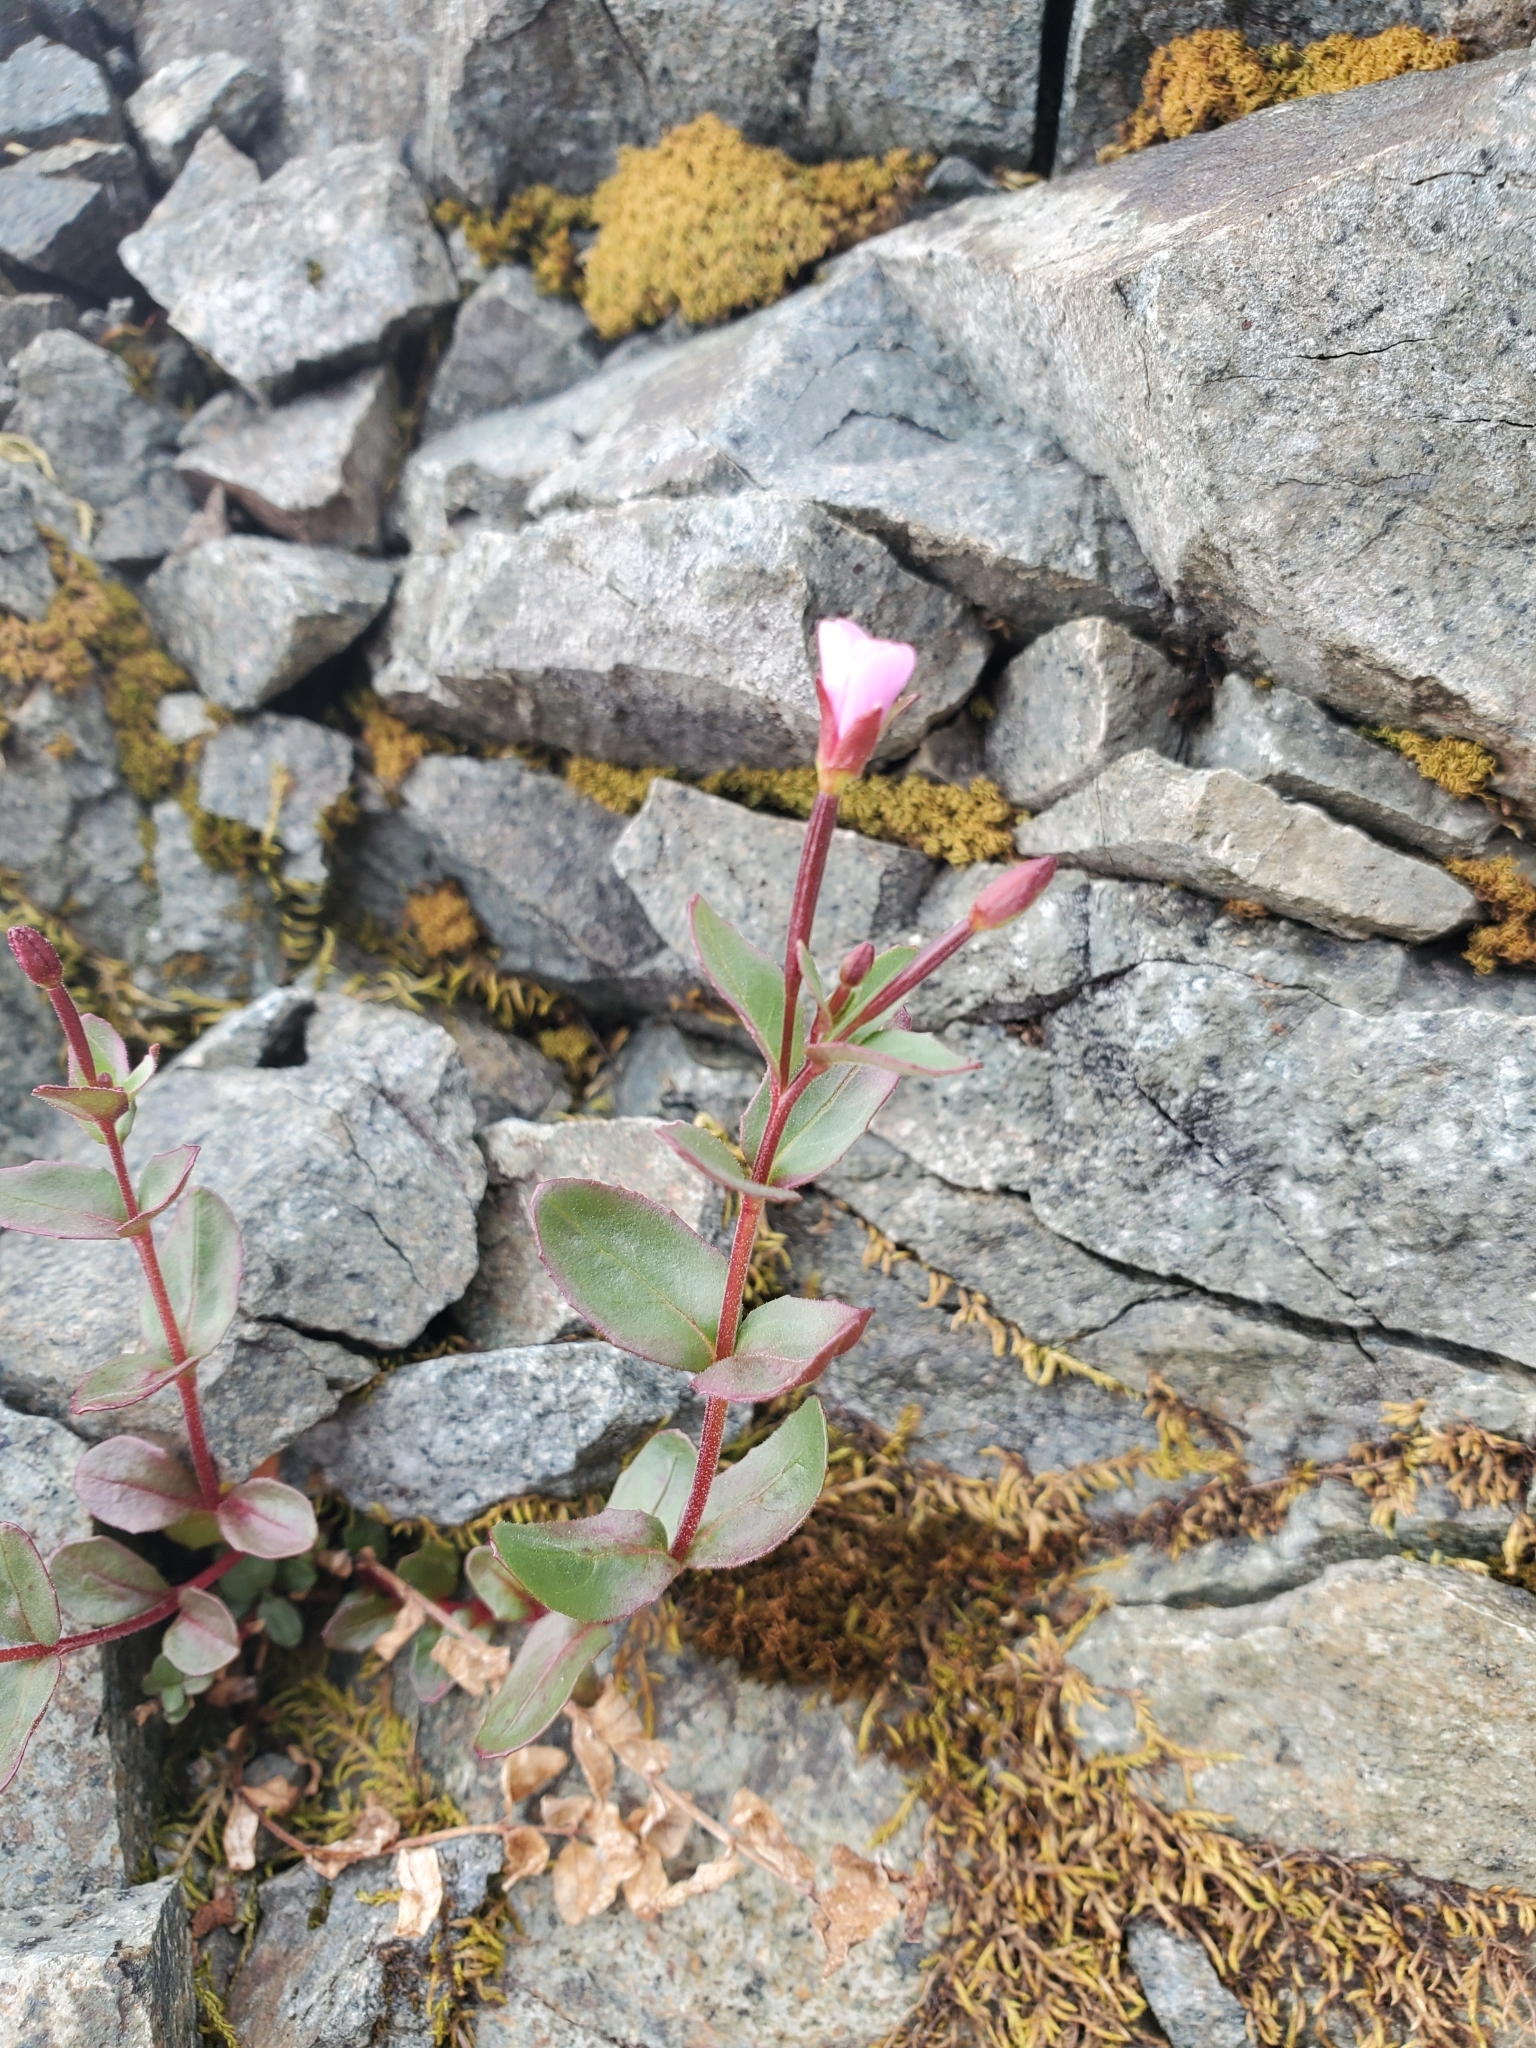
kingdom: Plantae
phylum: Tracheophyta
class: Magnoliopsida
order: Myrtales
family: Onagraceae
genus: Epilobium
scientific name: Epilobium glaberrimum
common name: Glaucous willowherb
